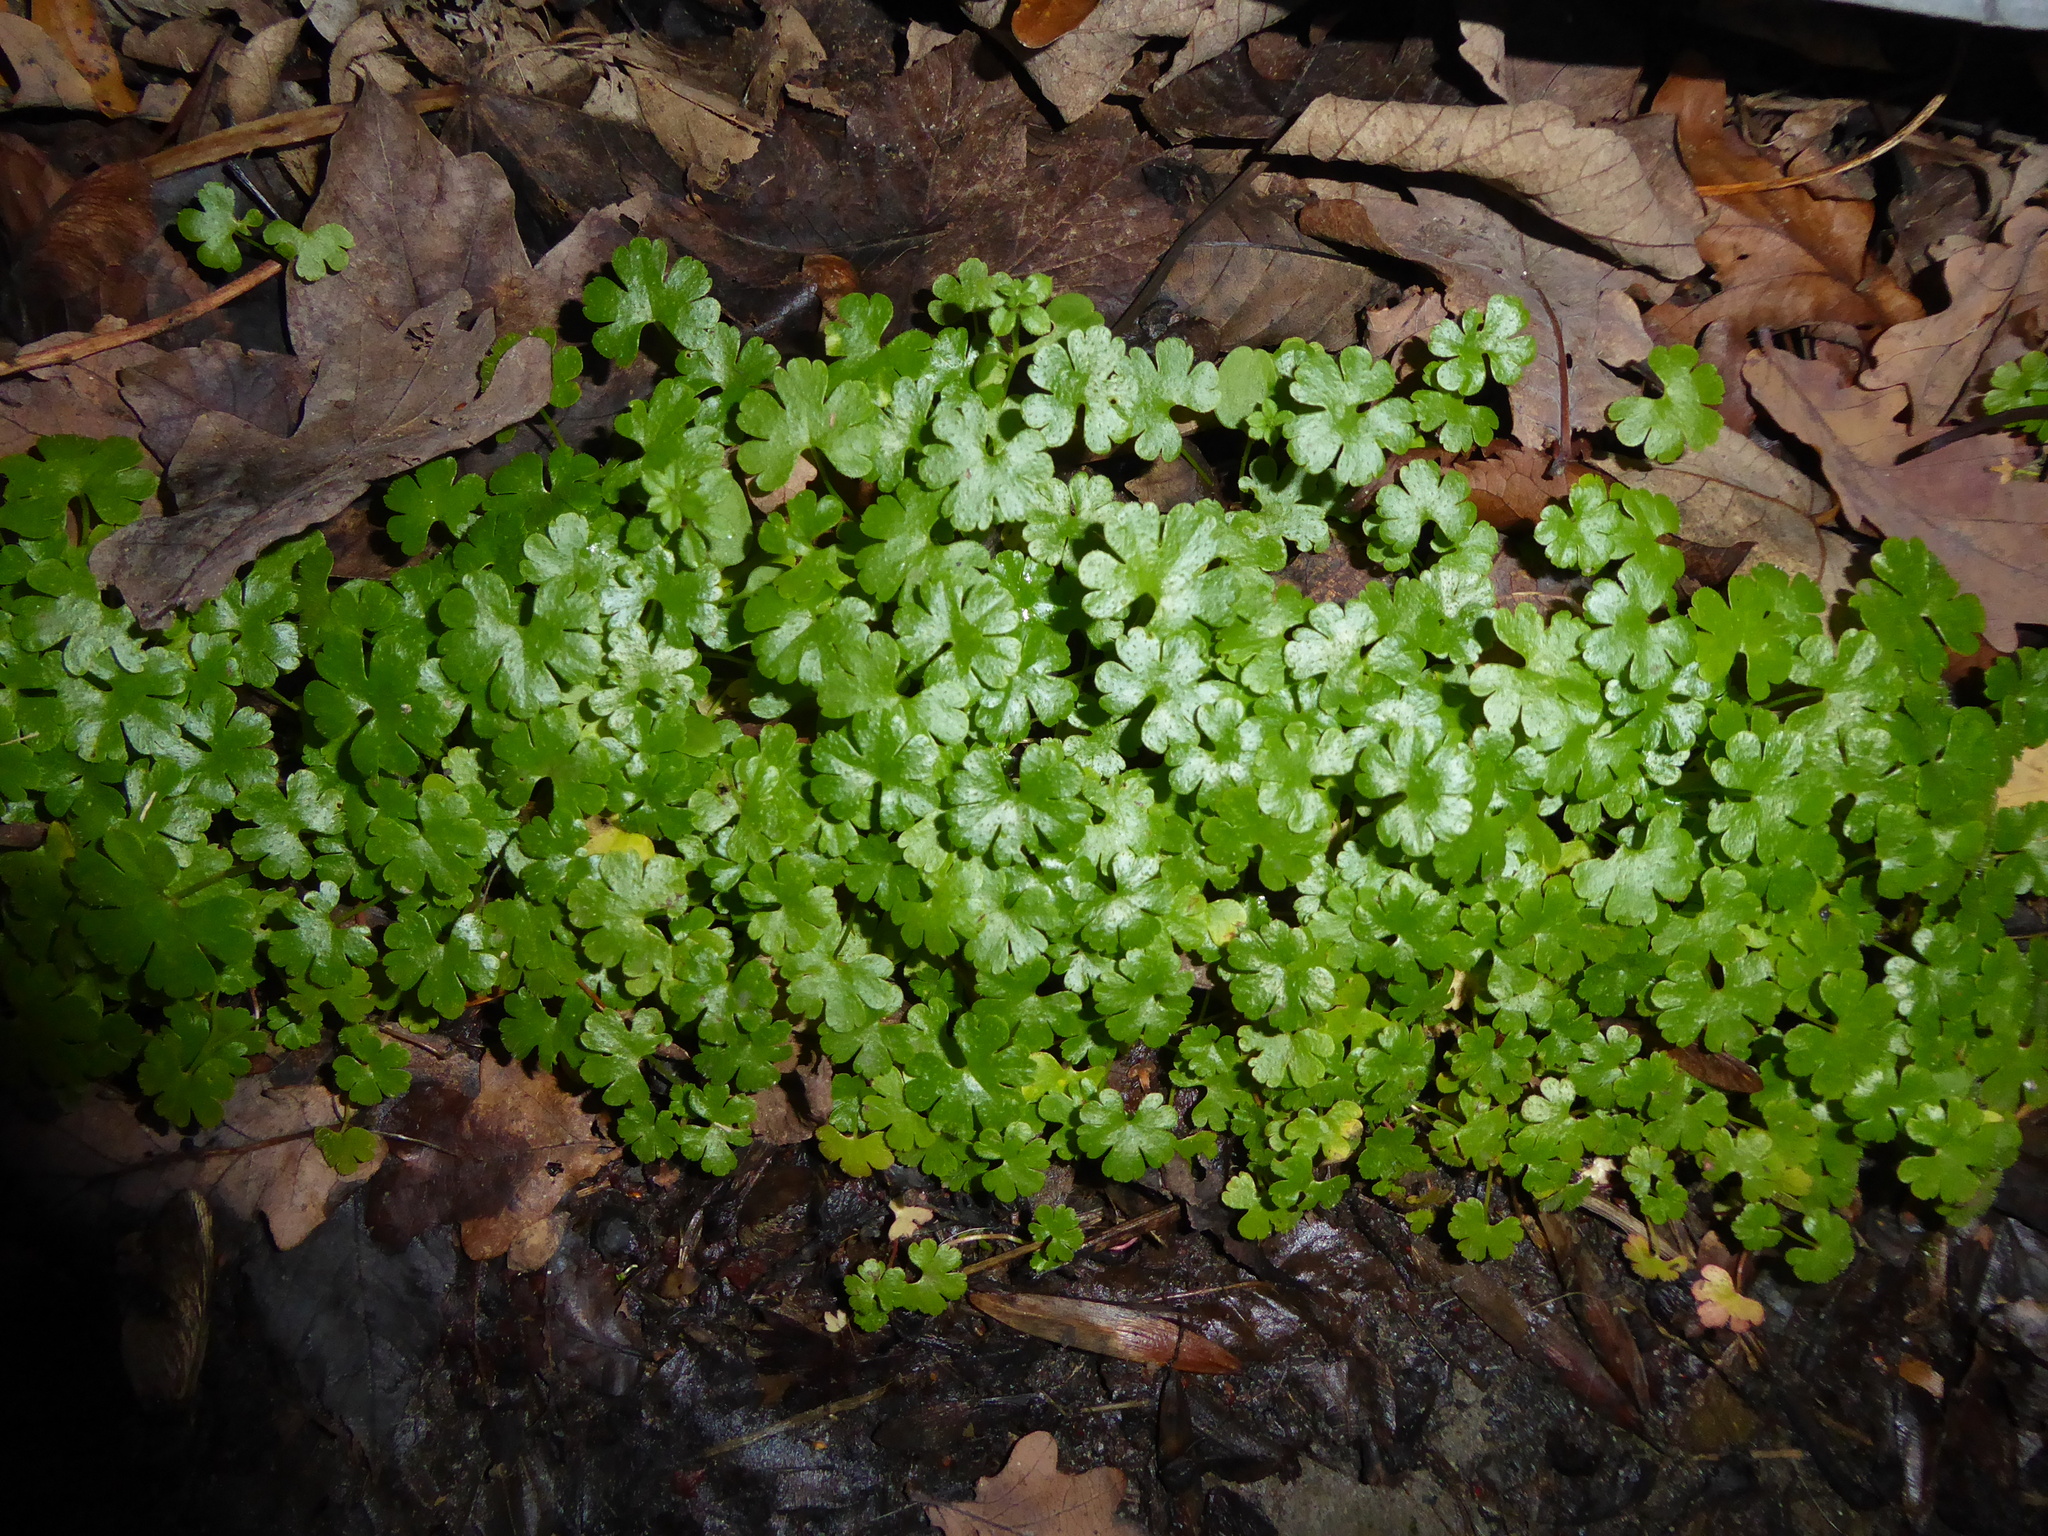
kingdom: Plantae
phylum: Tracheophyta
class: Magnoliopsida
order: Geraniales
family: Geraniaceae
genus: Geranium
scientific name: Geranium lucidum
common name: Shining crane's-bill
